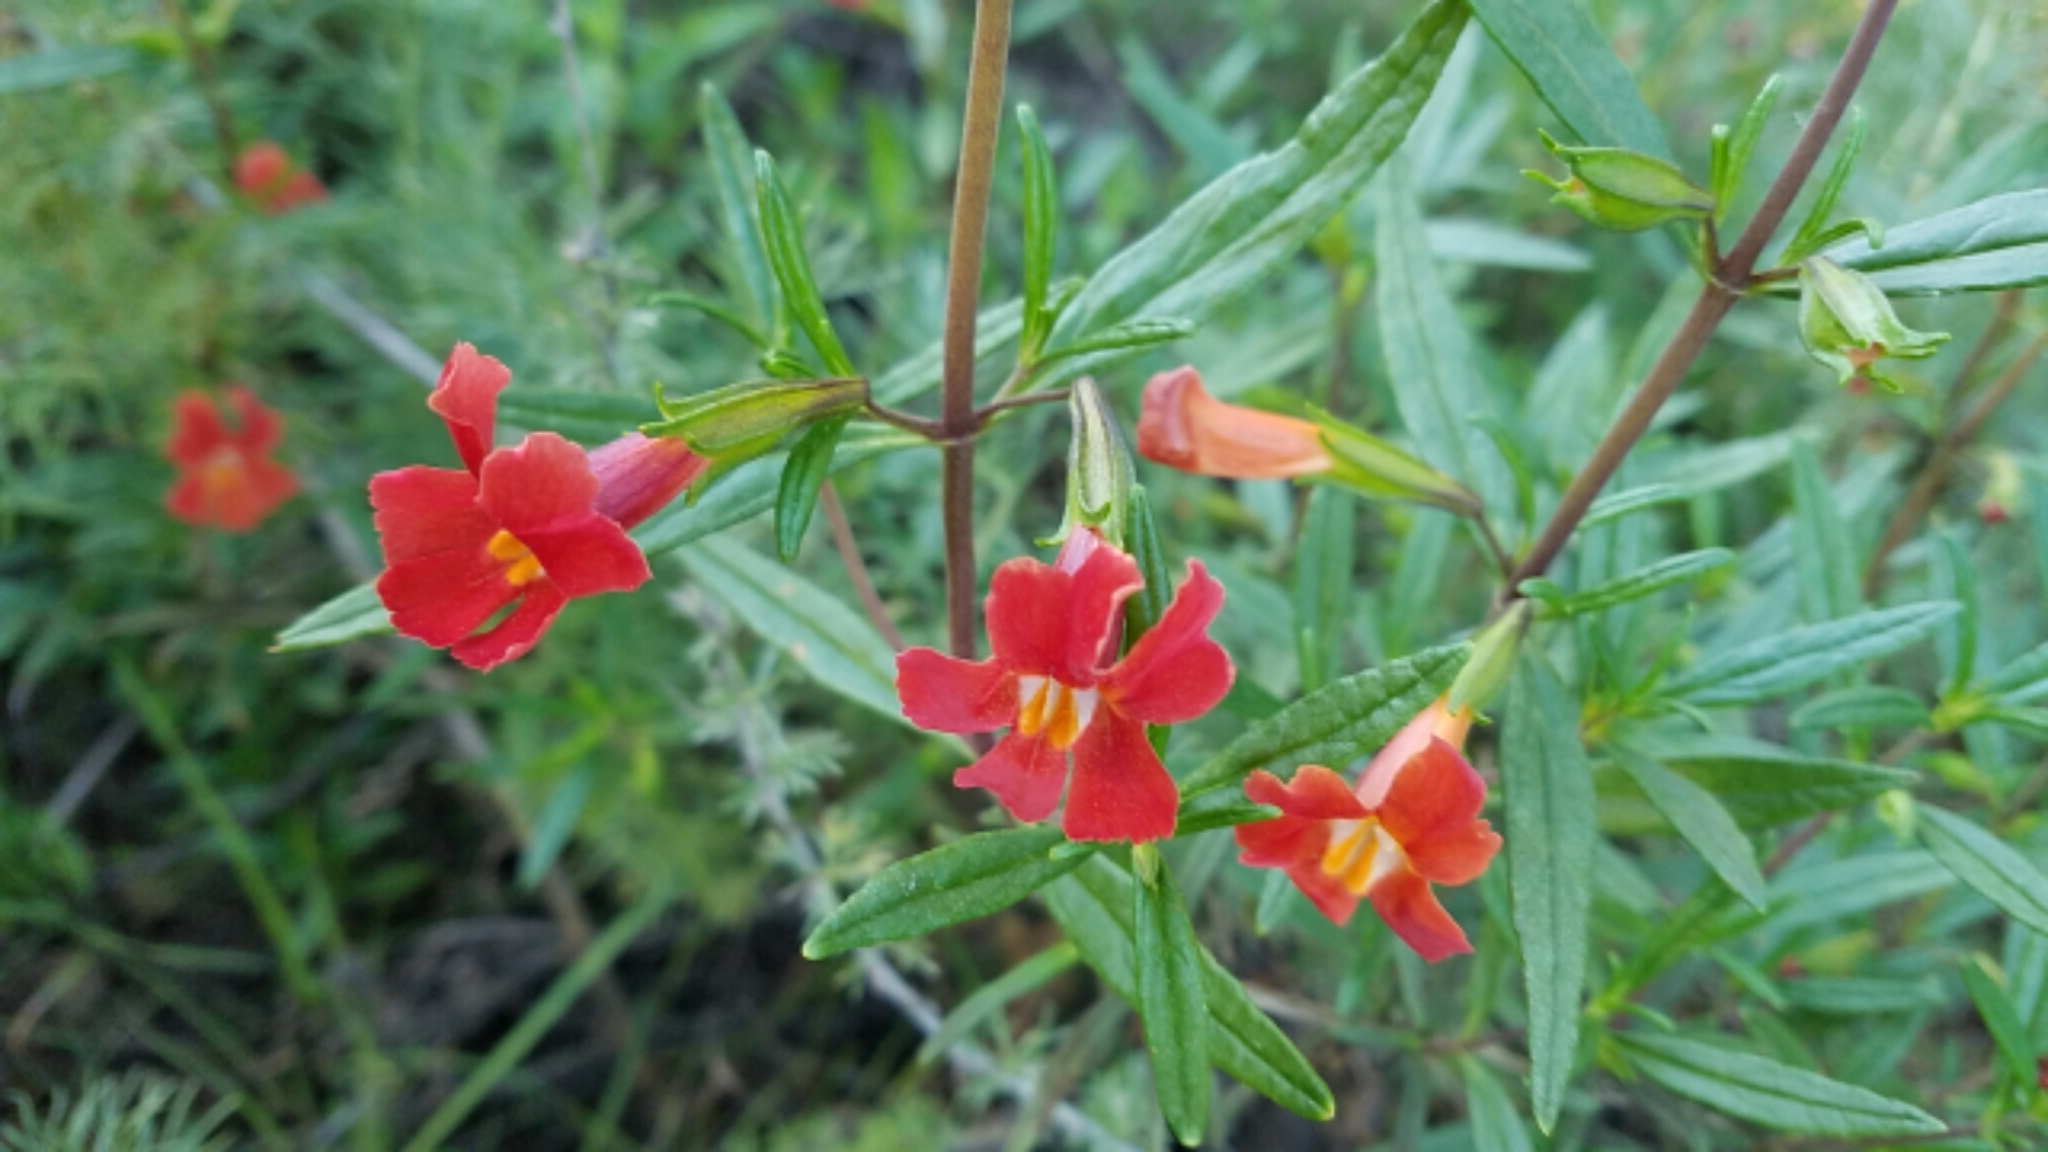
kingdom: Plantae
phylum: Tracheophyta
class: Magnoliopsida
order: Lamiales
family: Phrymaceae
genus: Diplacus
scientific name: Diplacus puniceus
